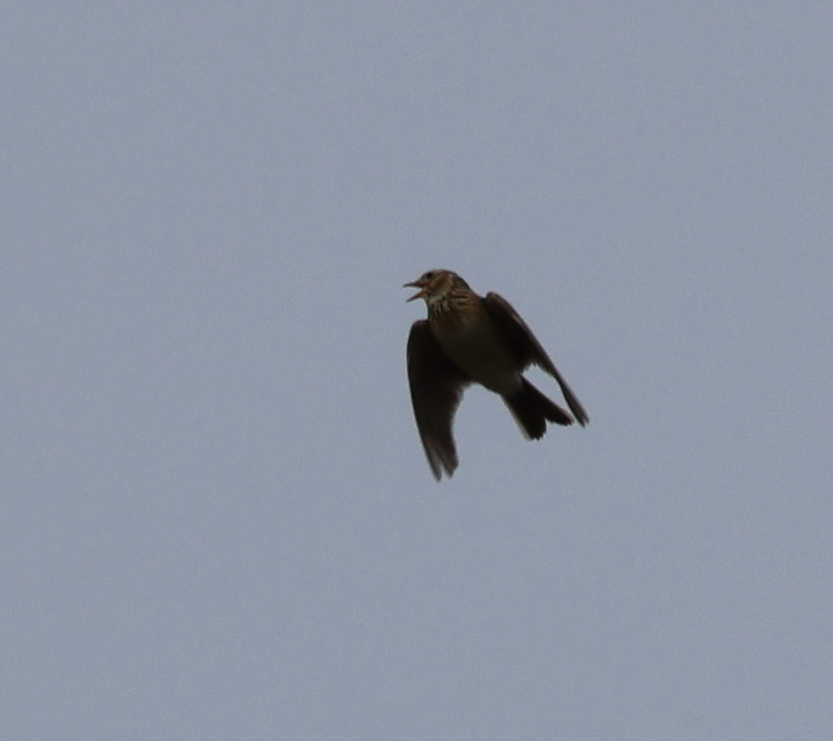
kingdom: Animalia
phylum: Chordata
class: Aves
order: Passeriformes
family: Alaudidae
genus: Alauda
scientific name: Alauda arvensis
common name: Eurasian skylark
